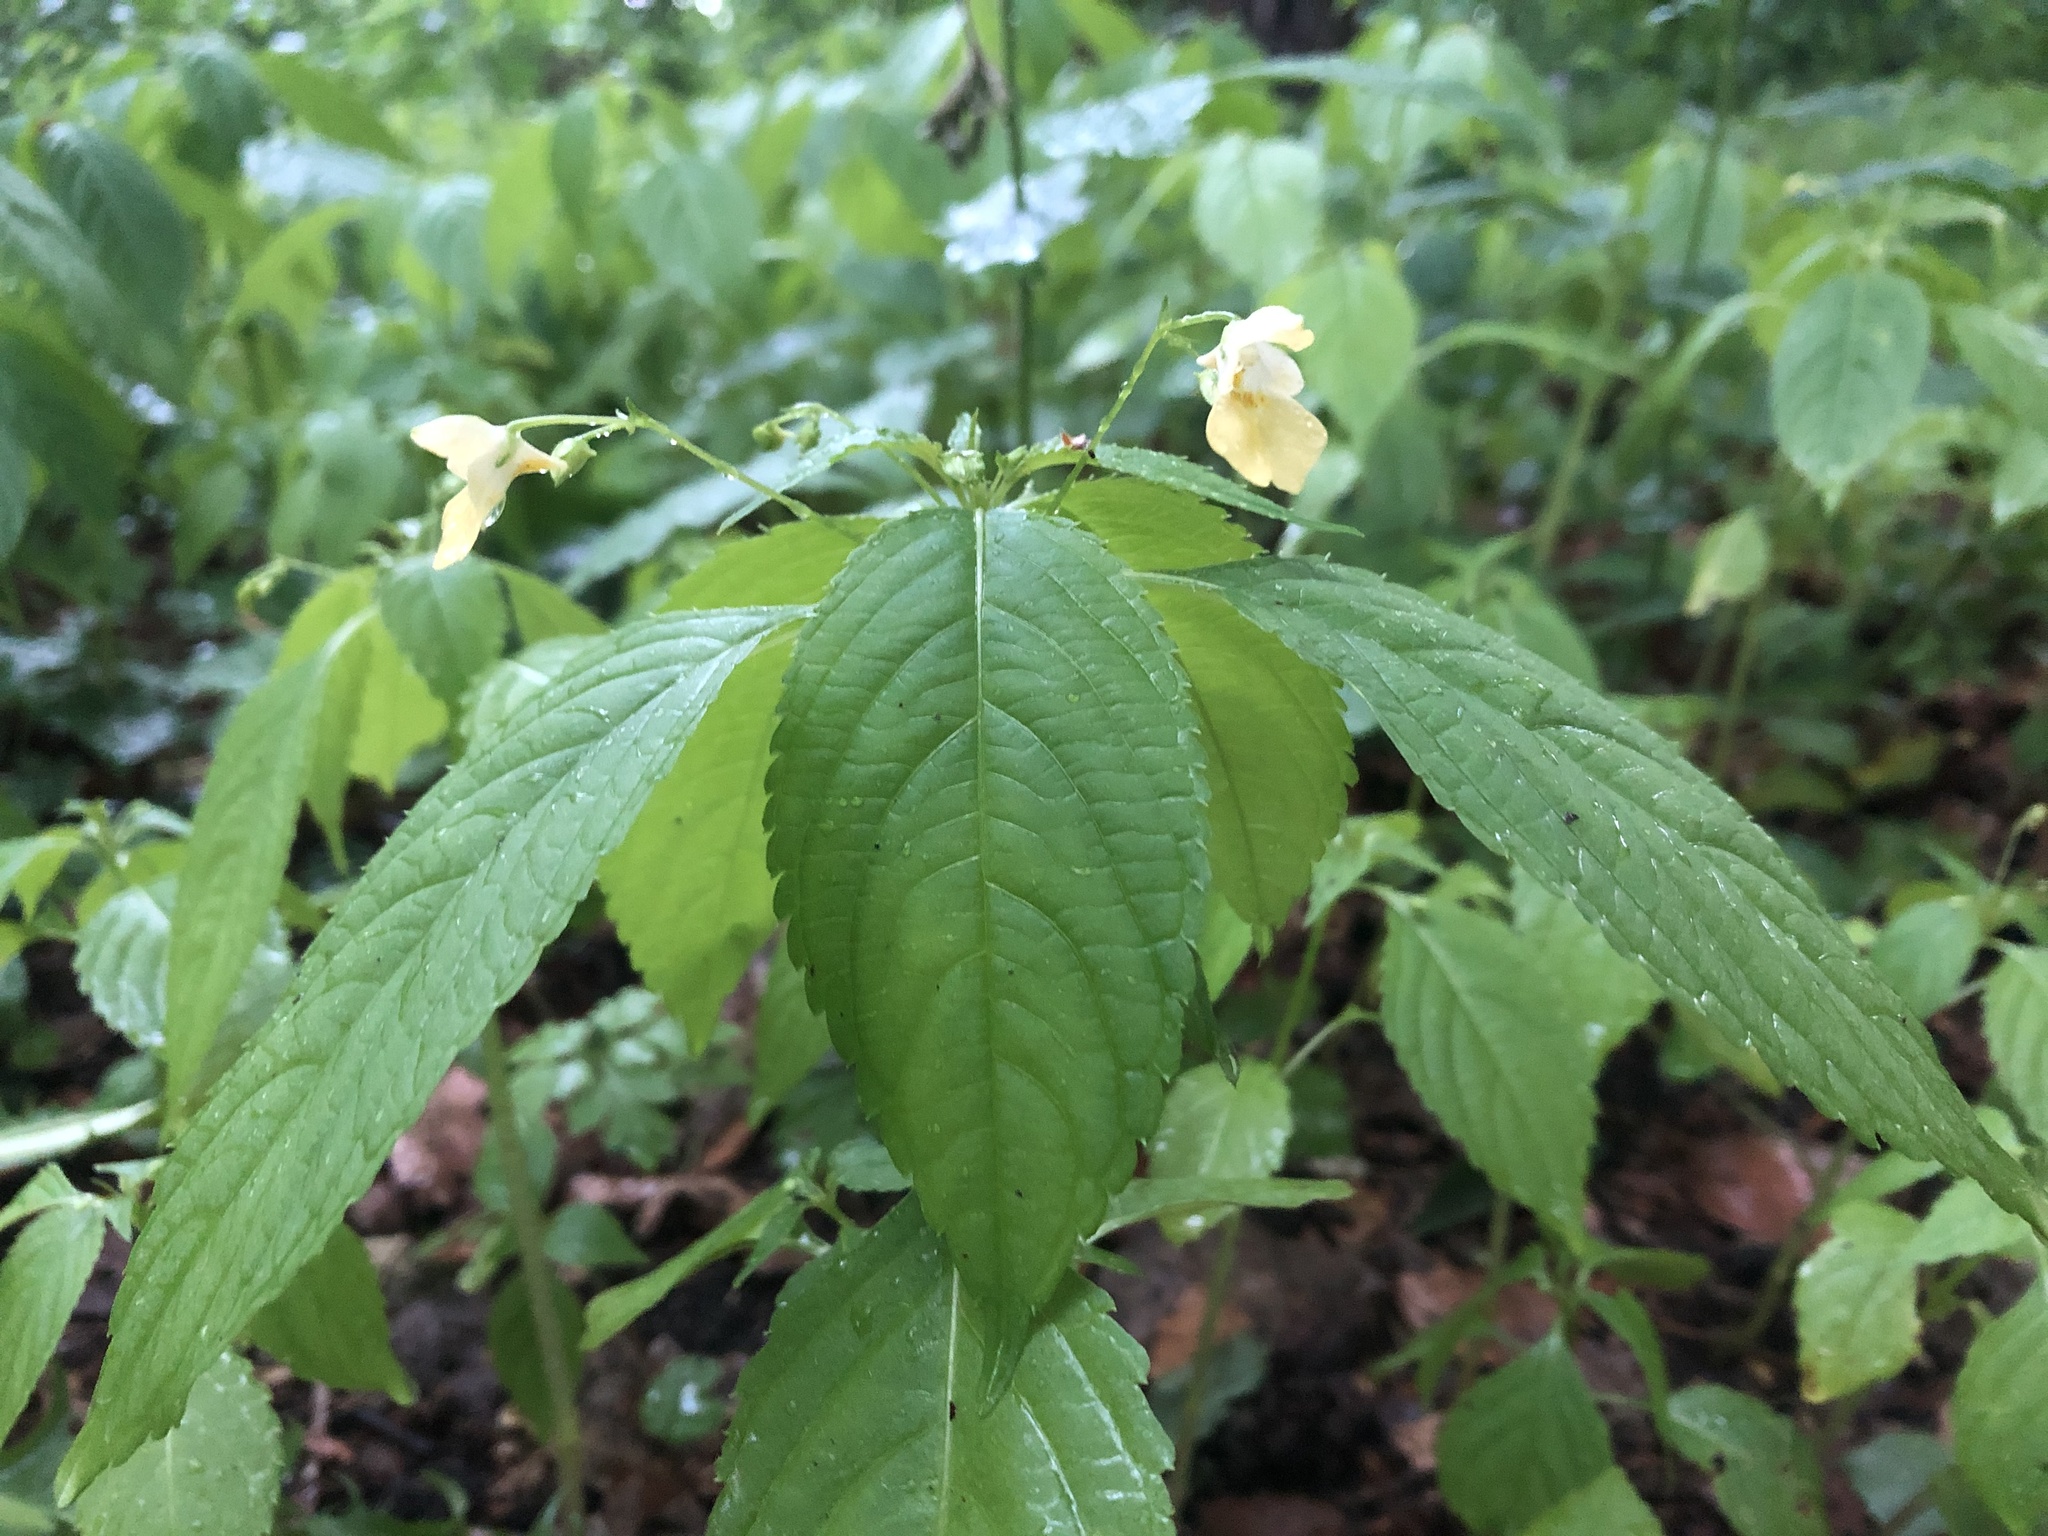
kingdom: Plantae
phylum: Tracheophyta
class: Magnoliopsida
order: Ericales
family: Balsaminaceae
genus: Impatiens
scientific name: Impatiens parviflora
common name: Small balsam
